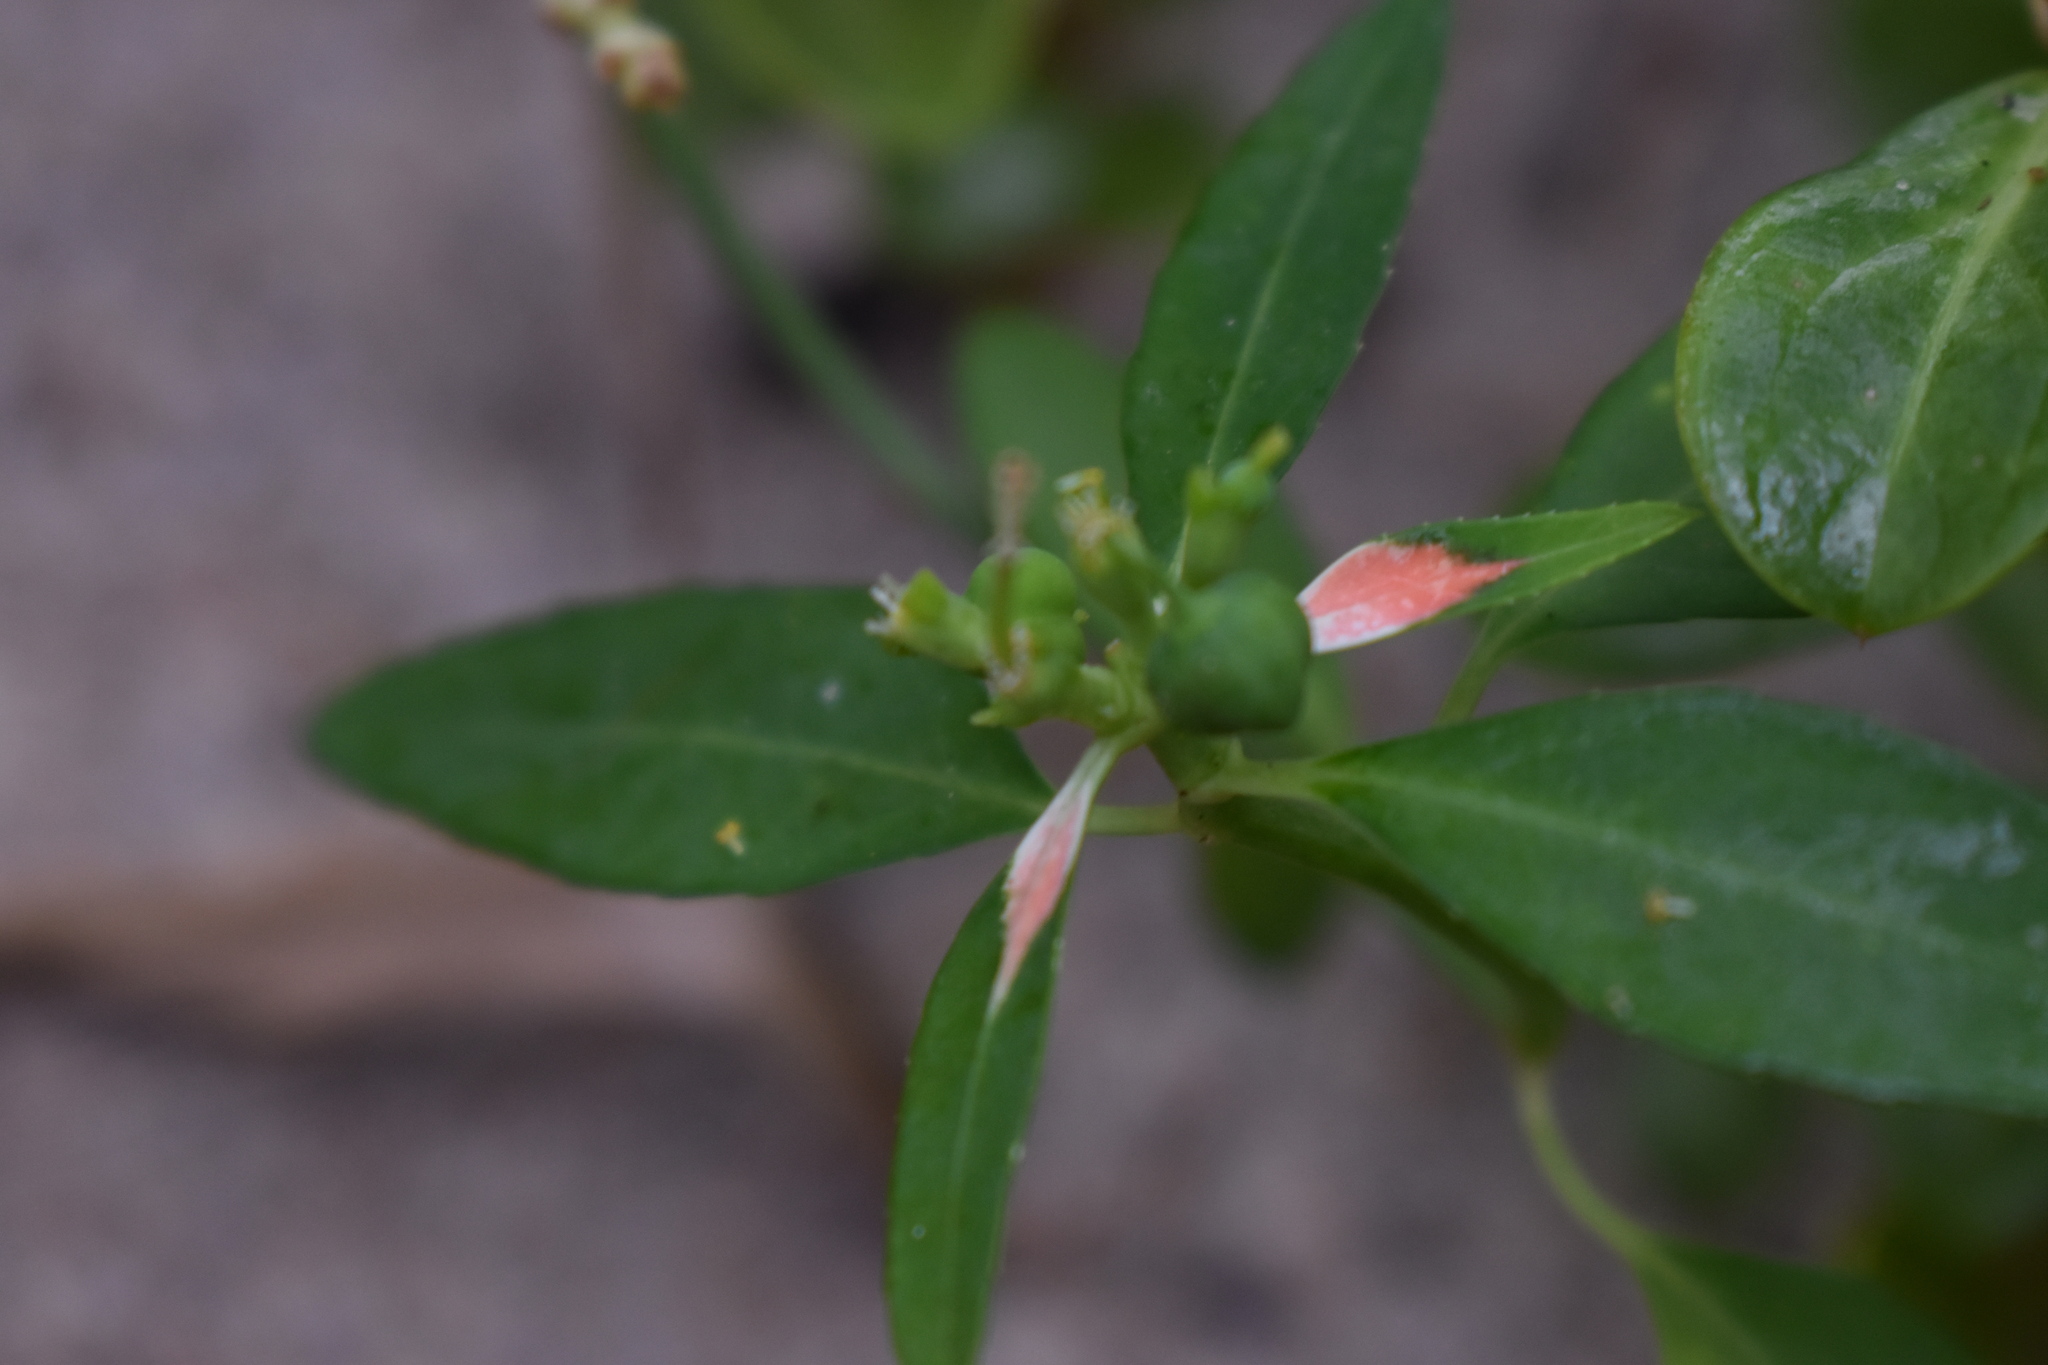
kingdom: Plantae
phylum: Tracheophyta
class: Magnoliopsida
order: Malpighiales
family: Euphorbiaceae
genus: Euphorbia
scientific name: Euphorbia heterophylla
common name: Mexican fireplant
